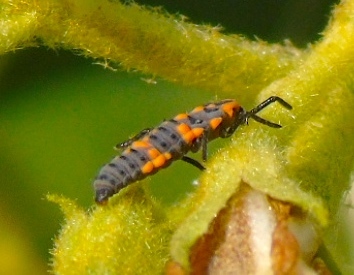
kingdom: Animalia
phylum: Arthropoda
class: Insecta
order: Coleoptera
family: Coccinellidae
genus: Coccinellina
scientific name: Coccinellina
